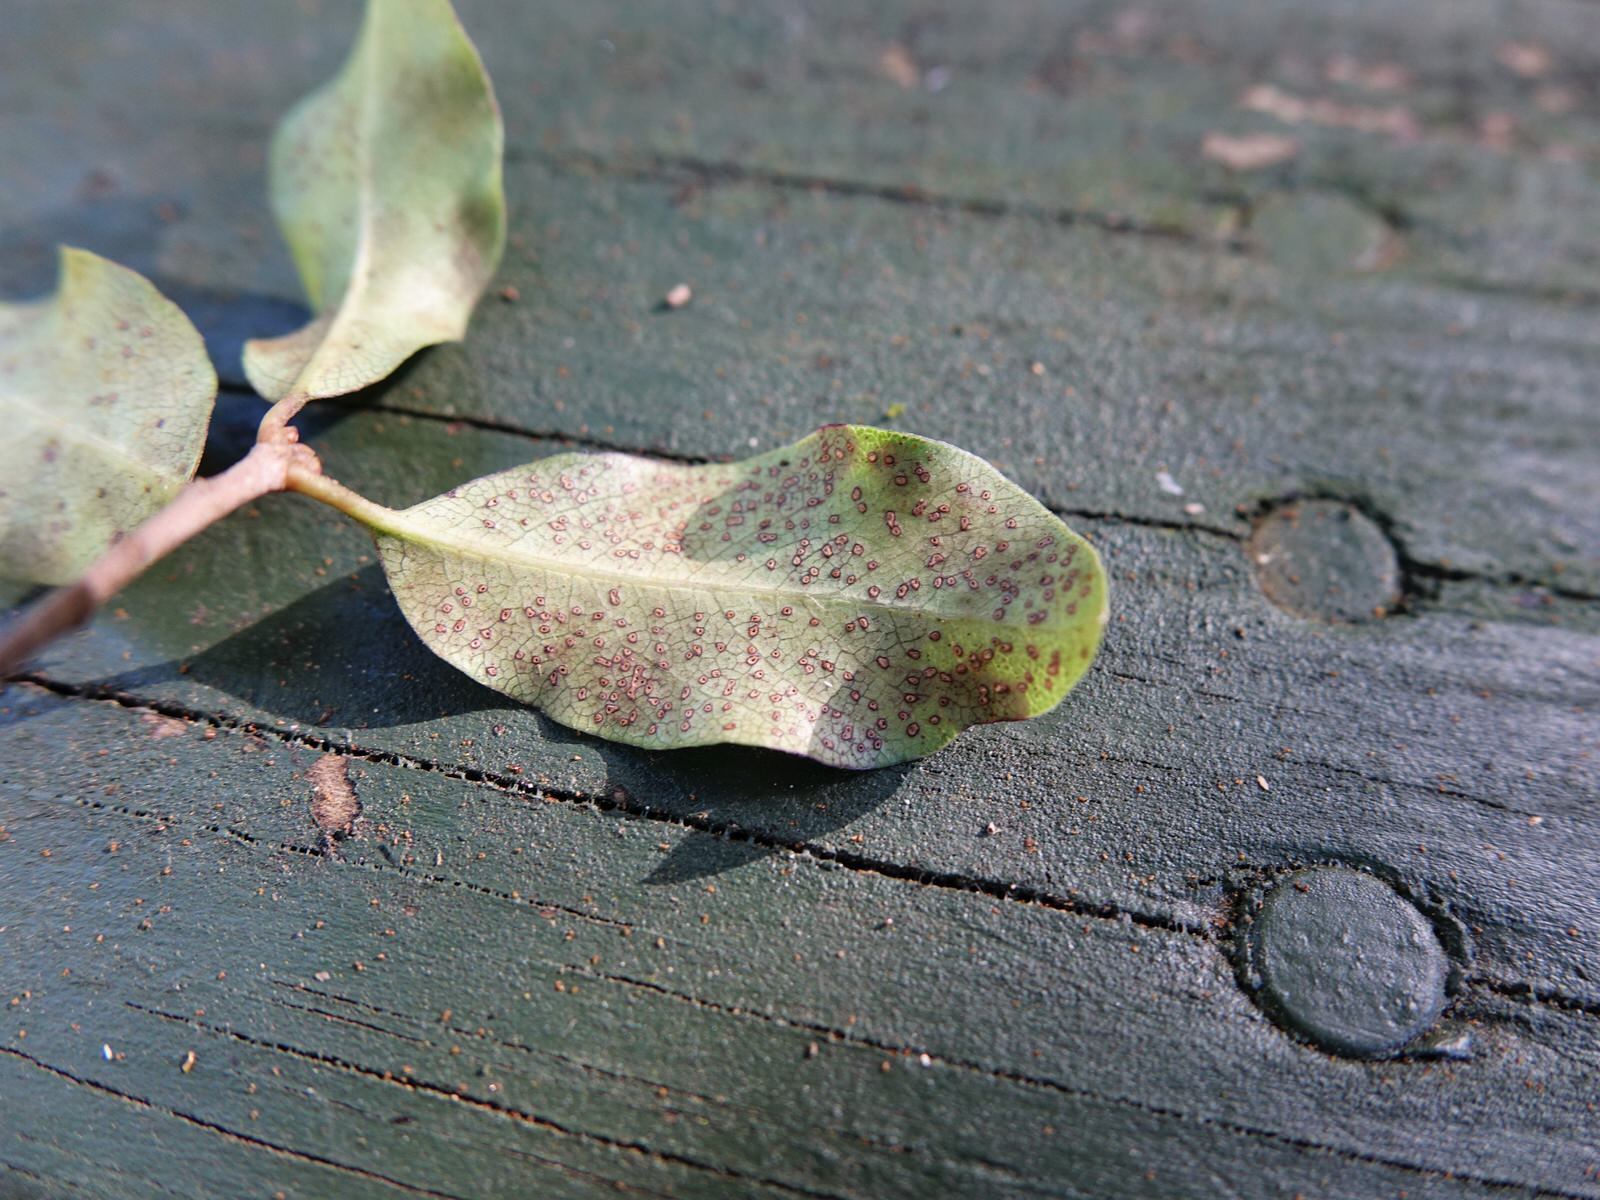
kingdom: Plantae
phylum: Tracheophyta
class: Magnoliopsida
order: Apiales
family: Pittosporaceae
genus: Pittosporum
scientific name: Pittosporum tenuifolium
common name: Kohuhu
